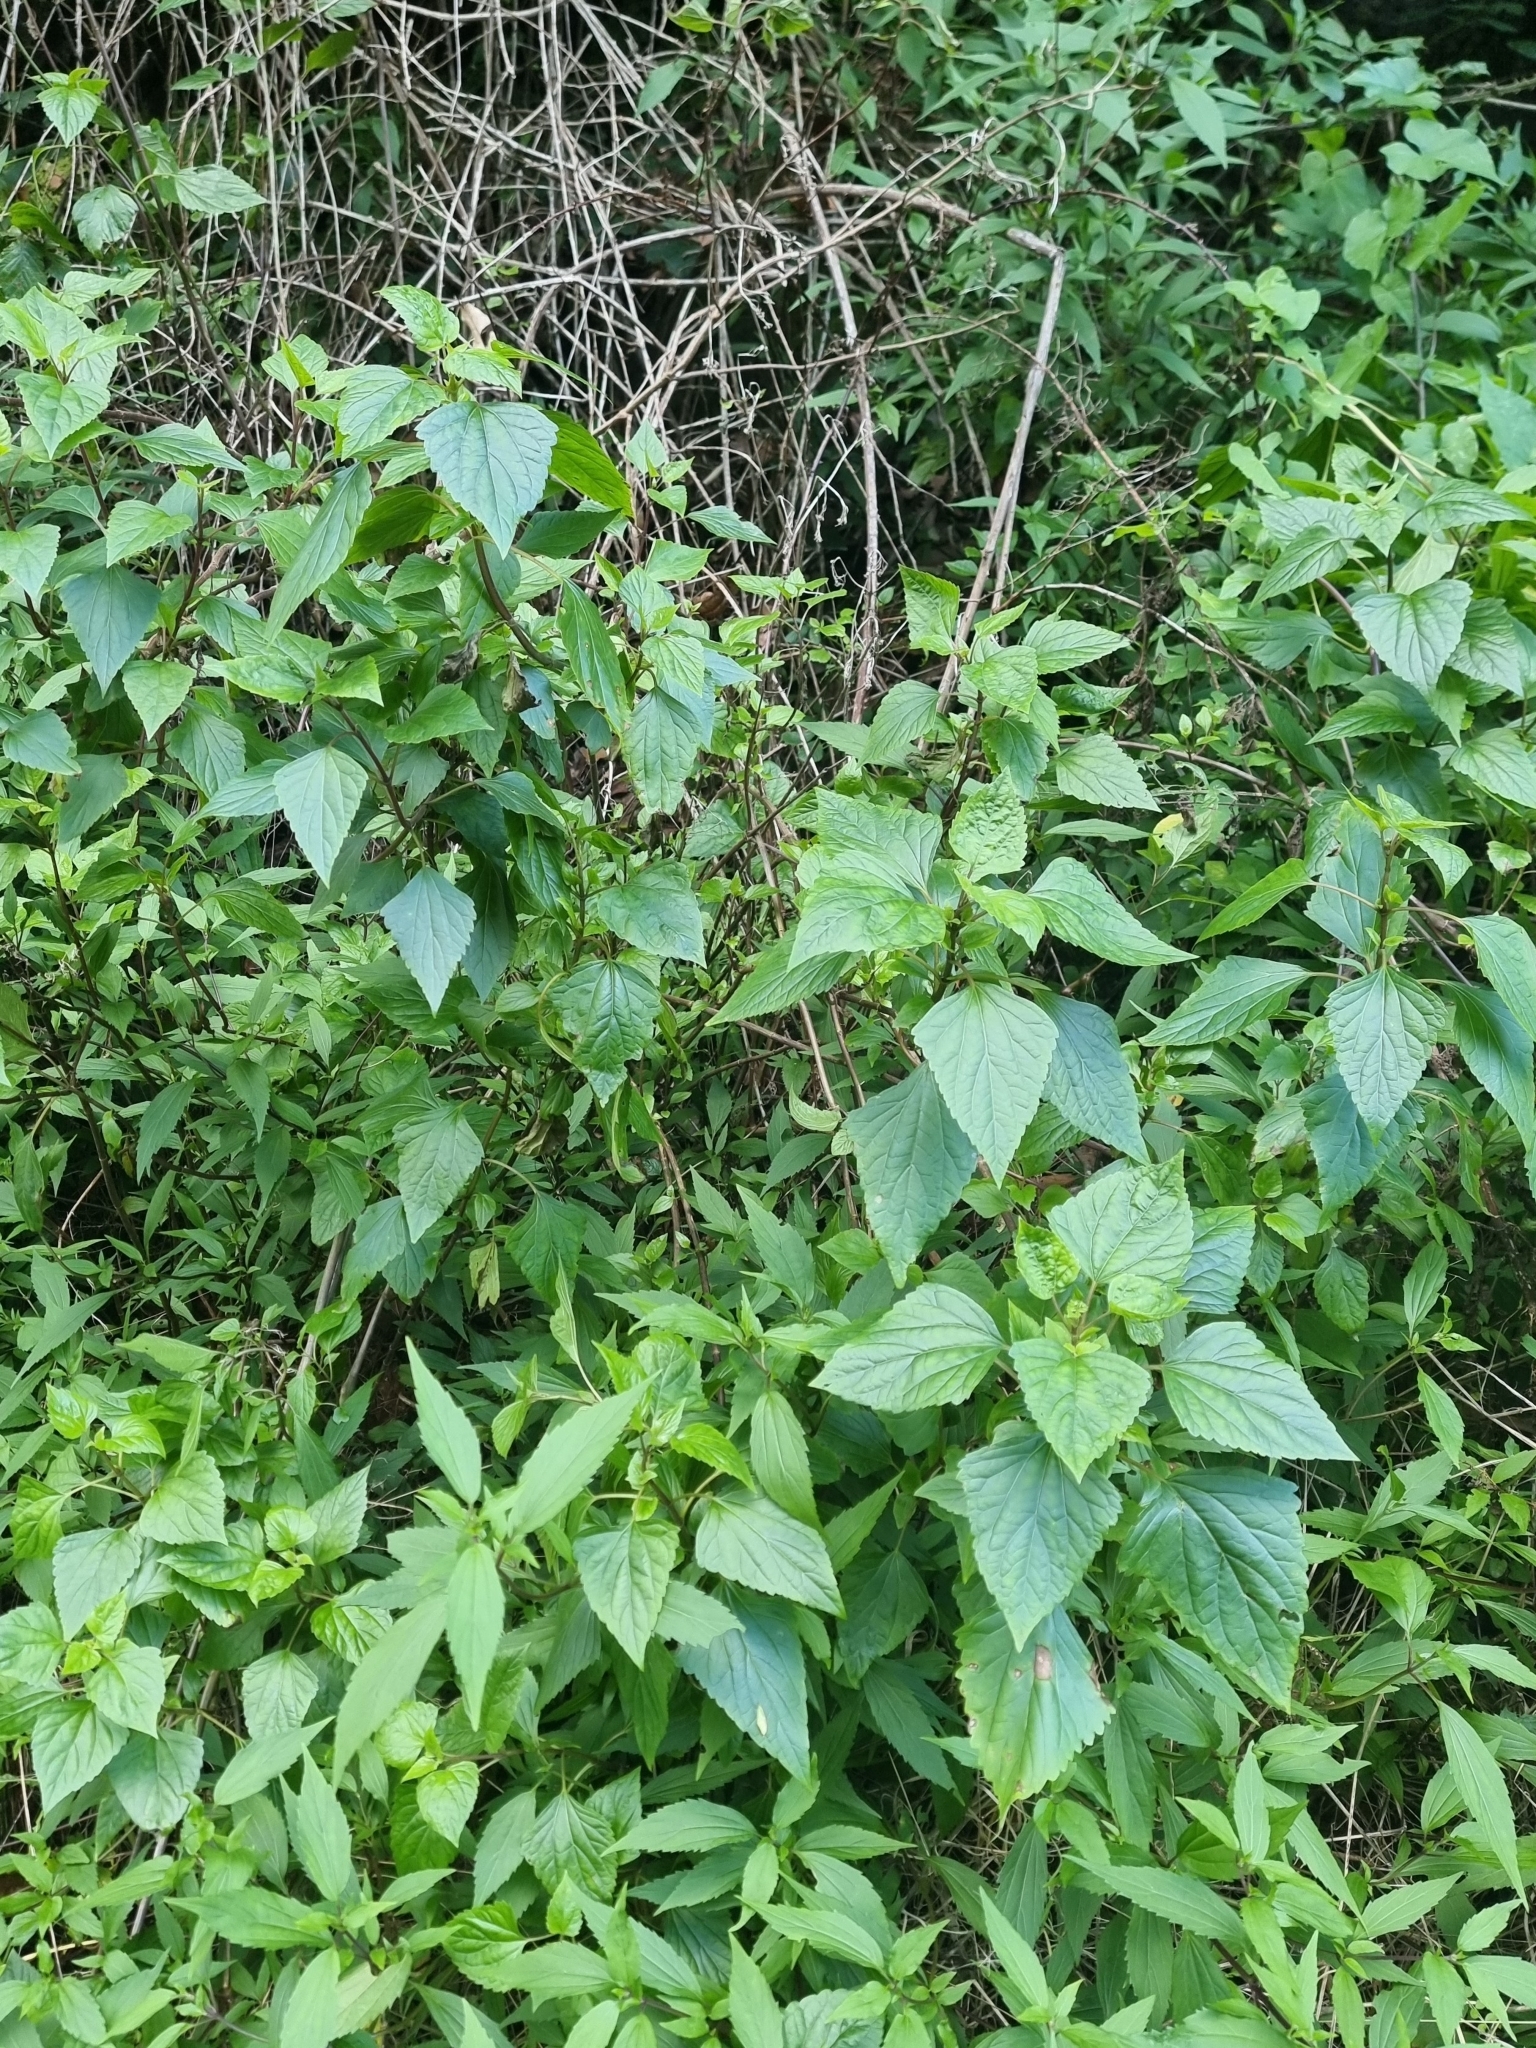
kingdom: Plantae
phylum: Tracheophyta
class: Magnoliopsida
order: Asterales
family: Asteraceae
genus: Ageratina
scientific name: Ageratina adenophora
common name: Sticky snakeroot
